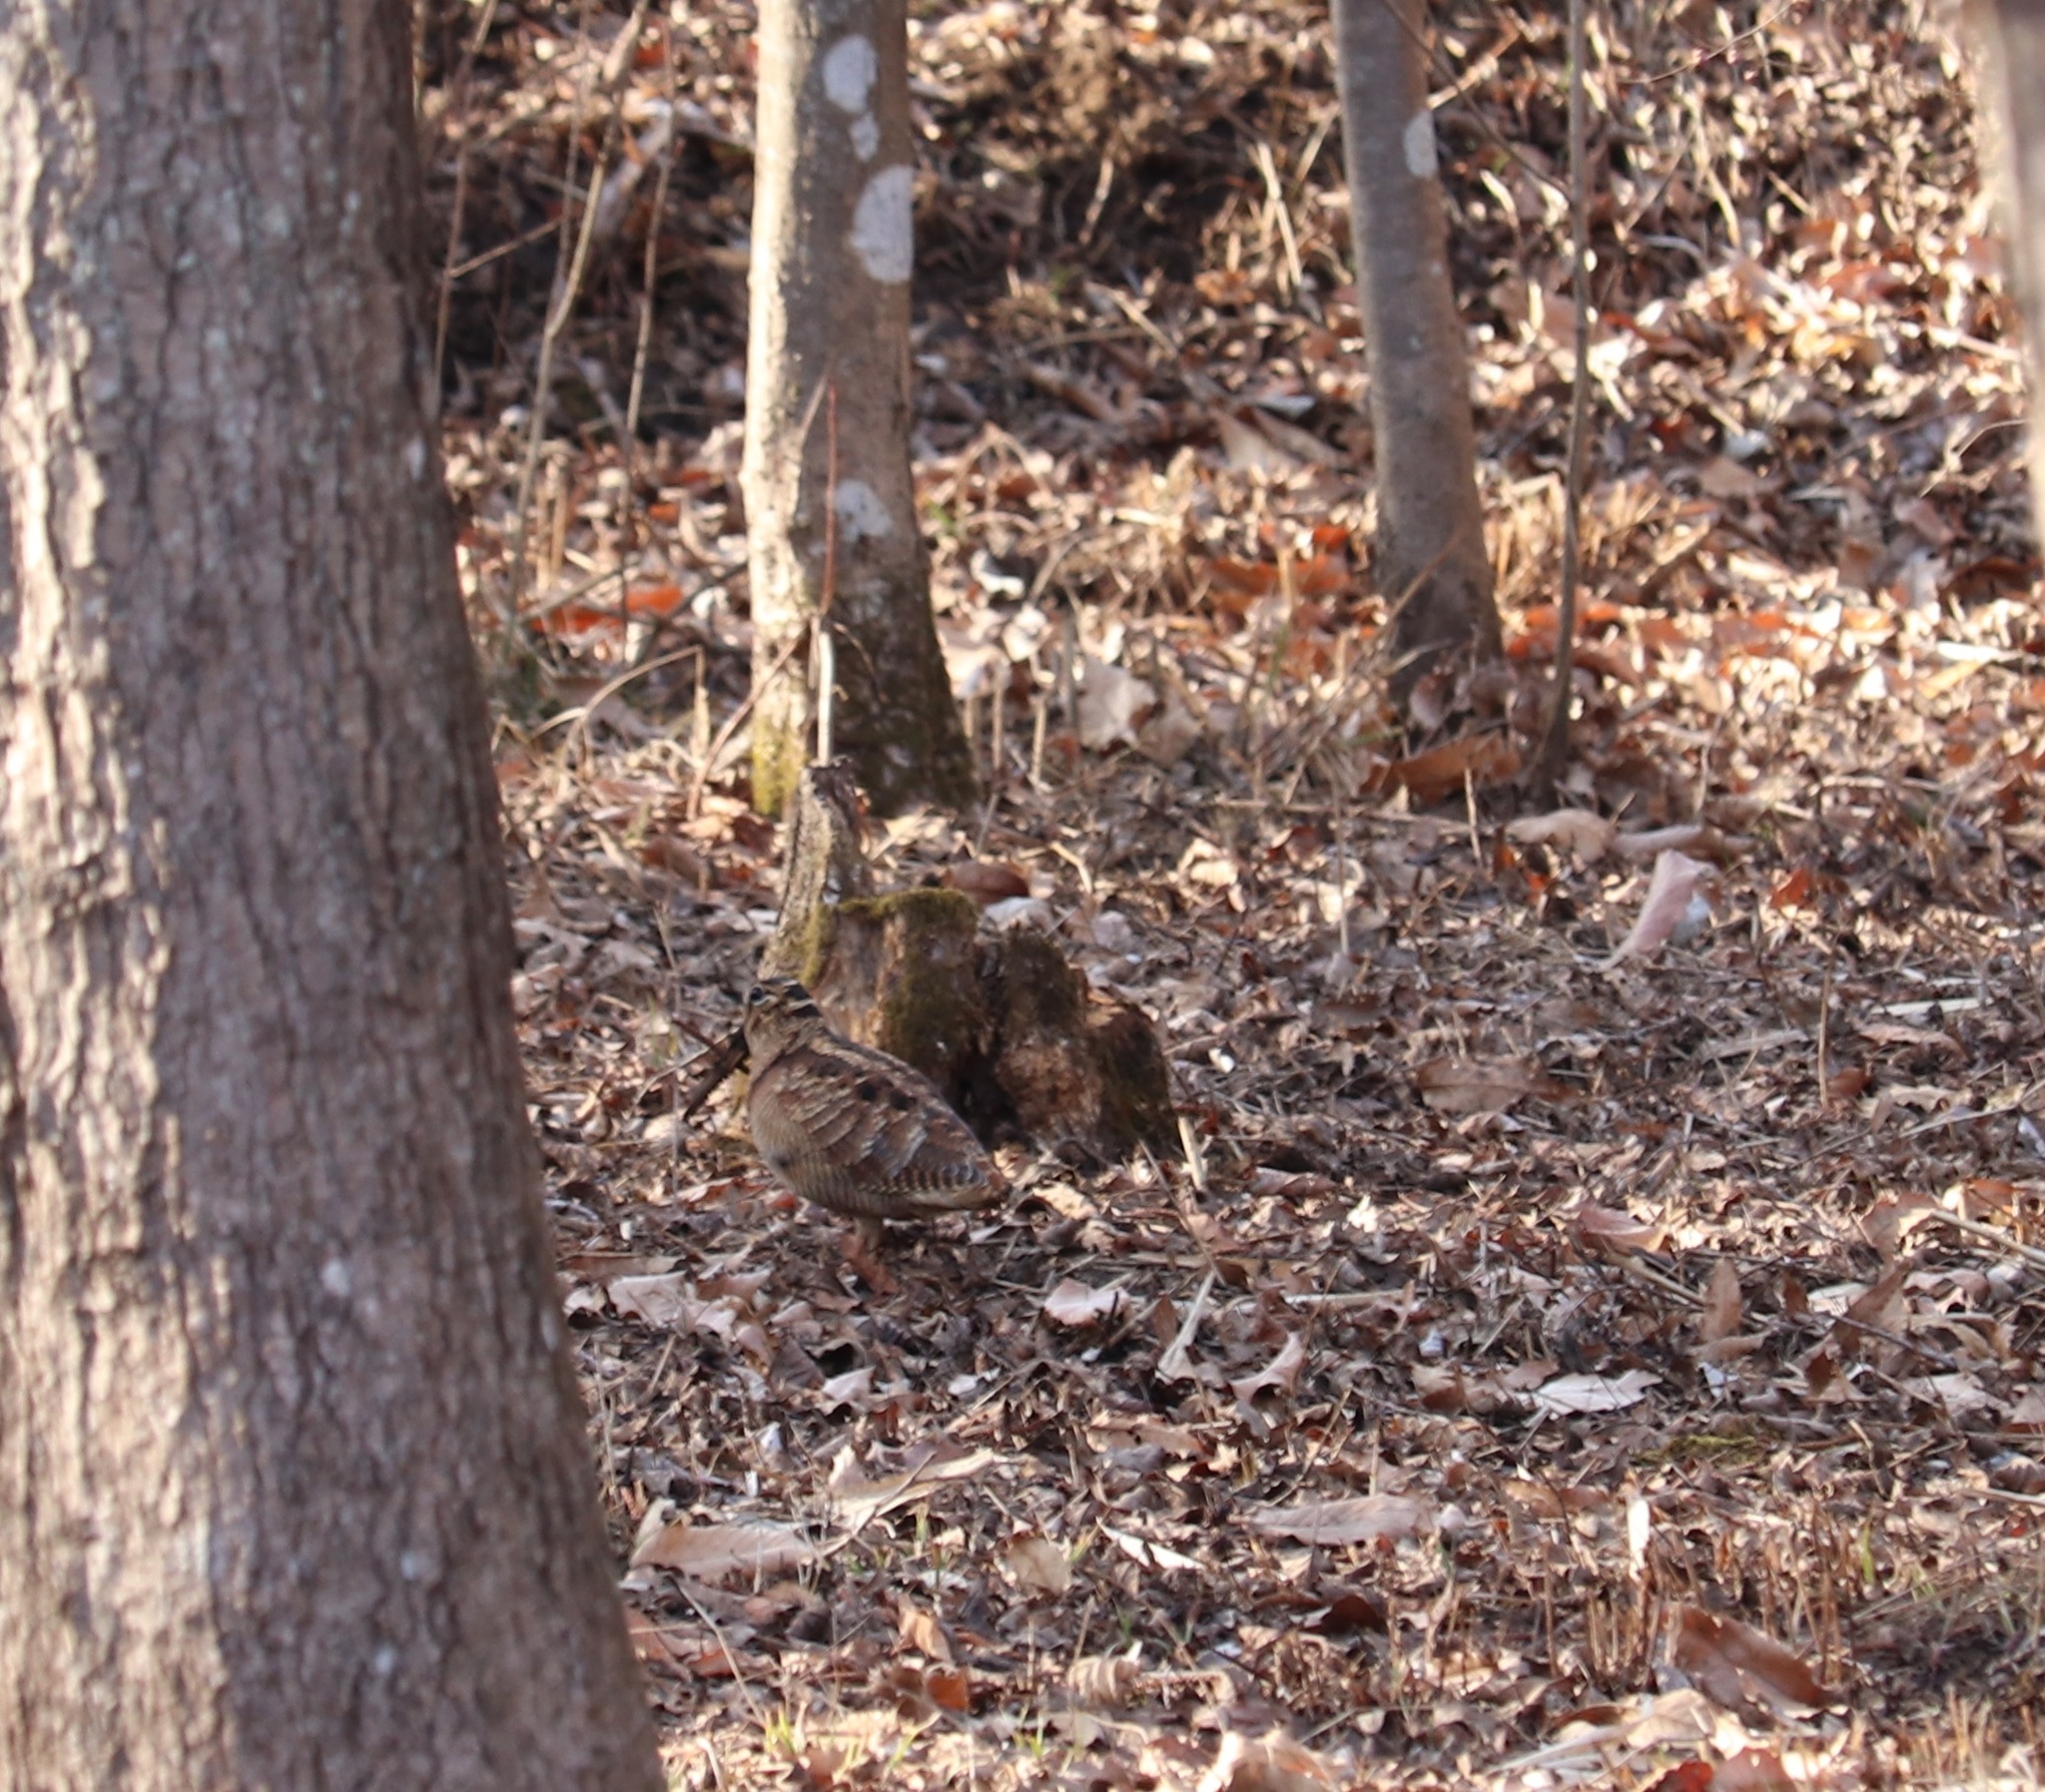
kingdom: Animalia
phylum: Chordata
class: Aves
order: Charadriiformes
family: Scolopacidae
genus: Scolopax
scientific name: Scolopax rusticola
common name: Eurasian woodcock
